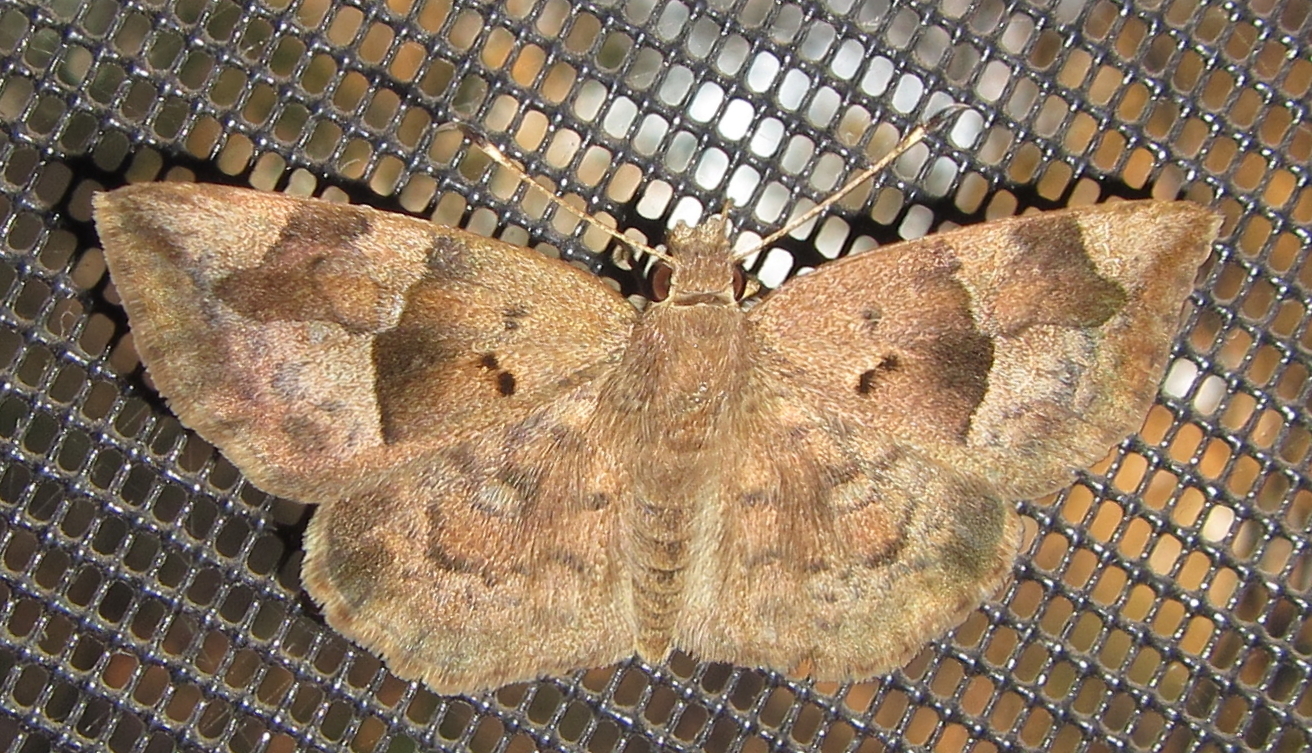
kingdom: Animalia
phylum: Arthropoda
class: Insecta
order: Lepidoptera
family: Hesperiidae
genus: Sarangesa
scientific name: Sarangesa phidyle
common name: Small elfin
